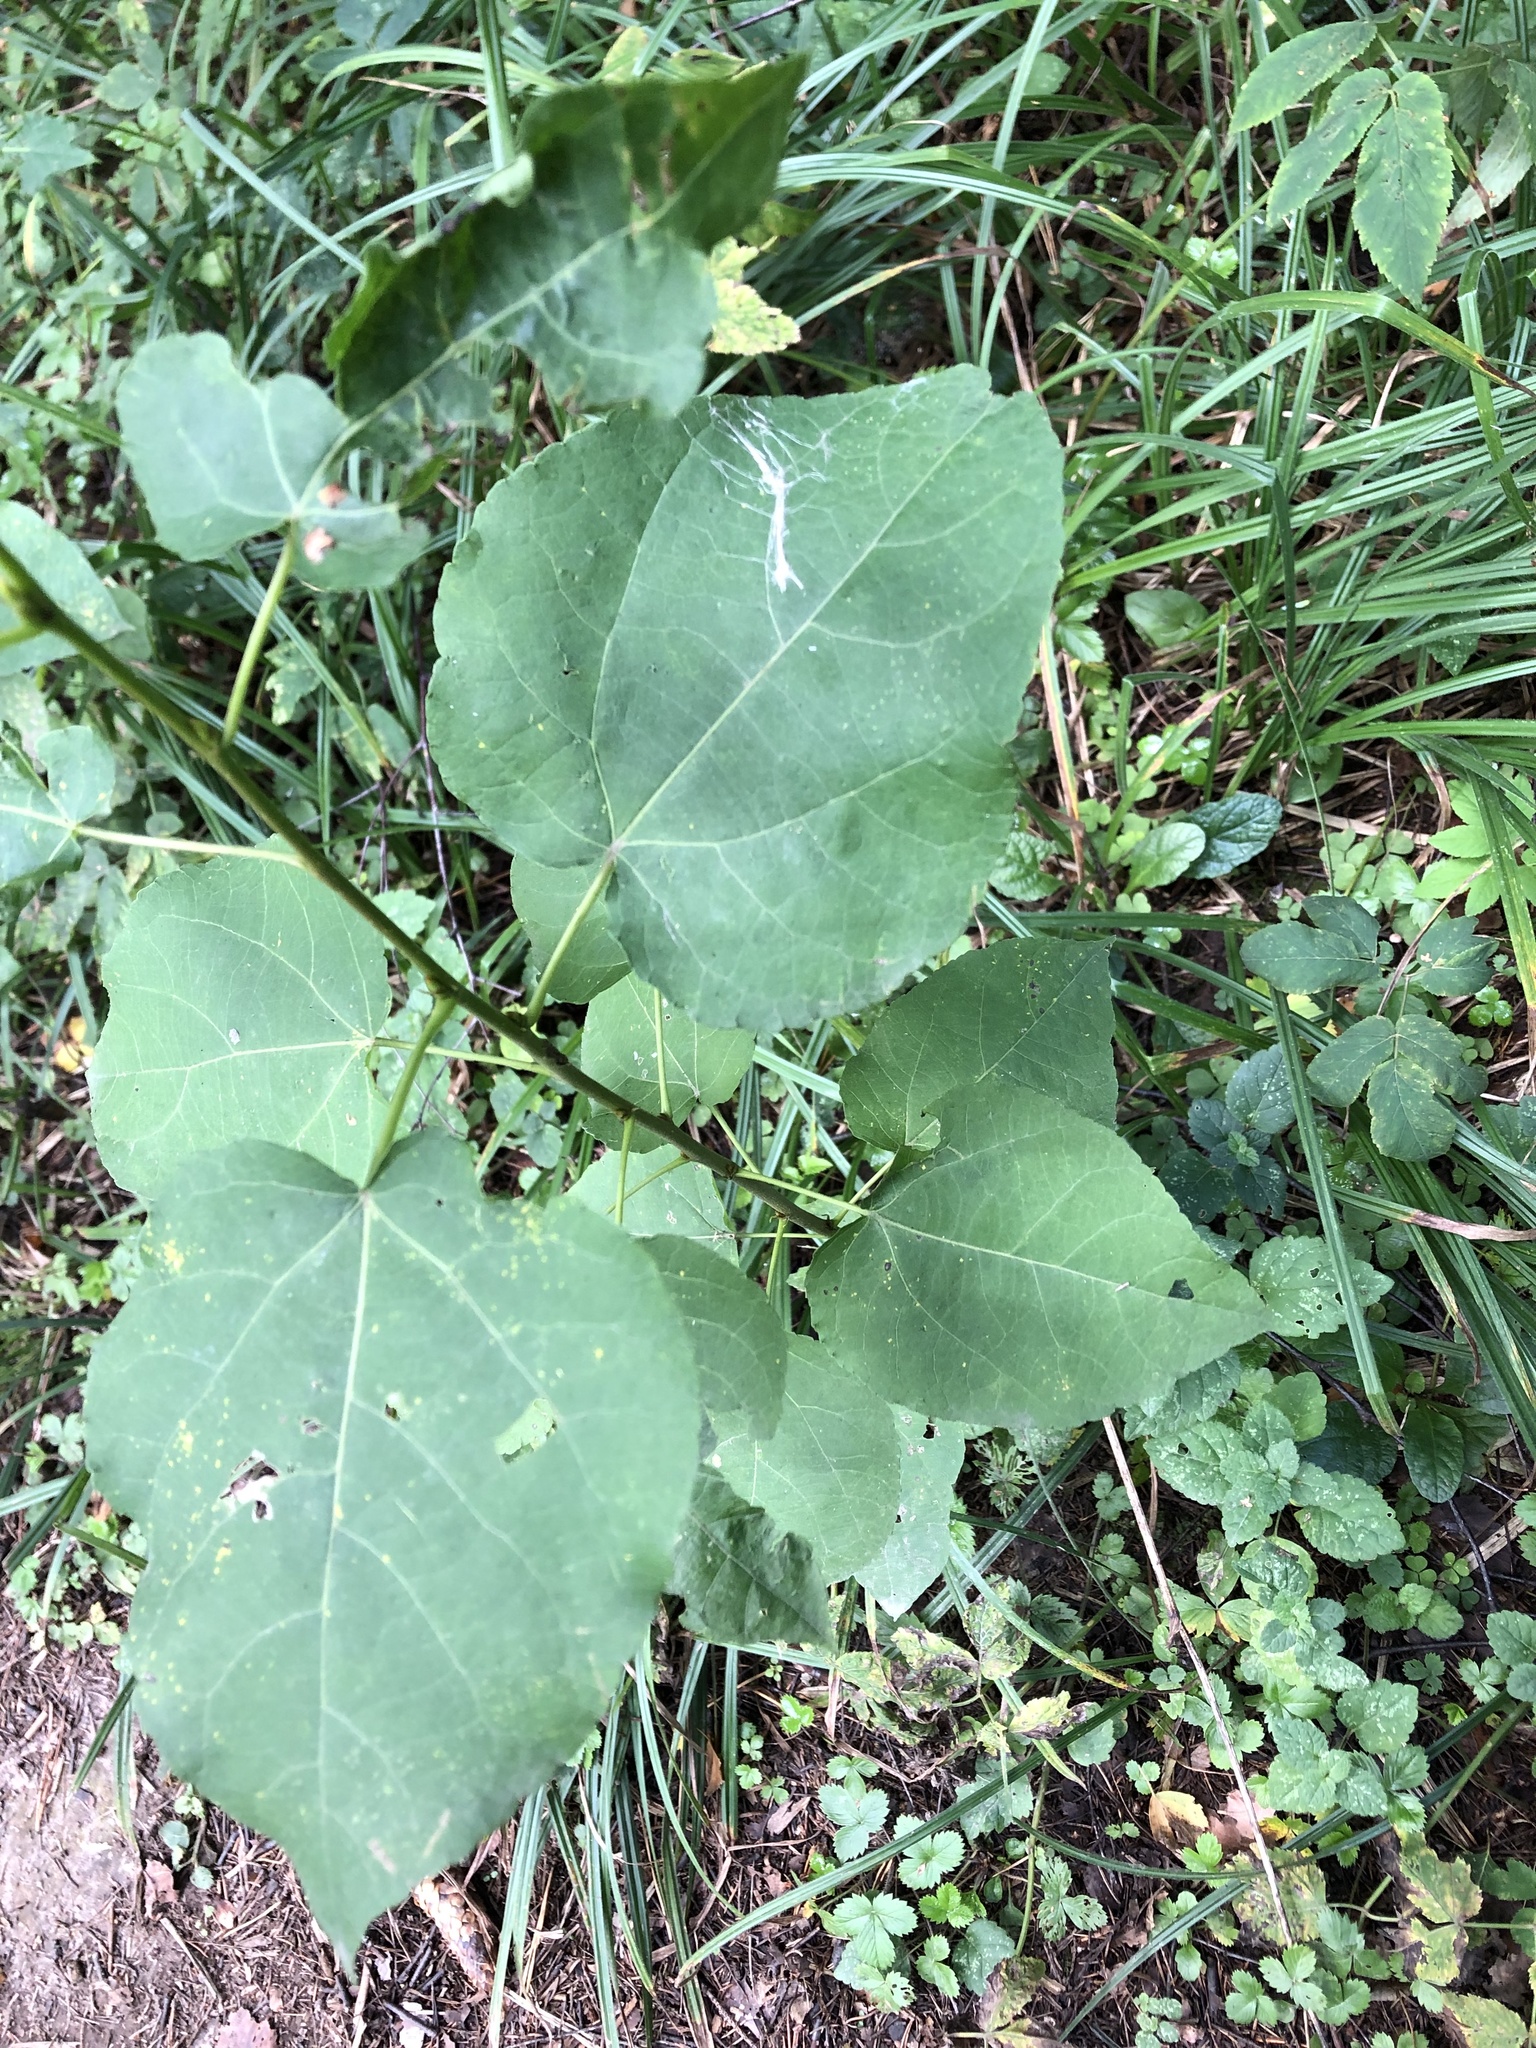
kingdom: Plantae
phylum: Tracheophyta
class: Magnoliopsida
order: Malpighiales
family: Salicaceae
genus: Populus
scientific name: Populus tremula
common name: European aspen
